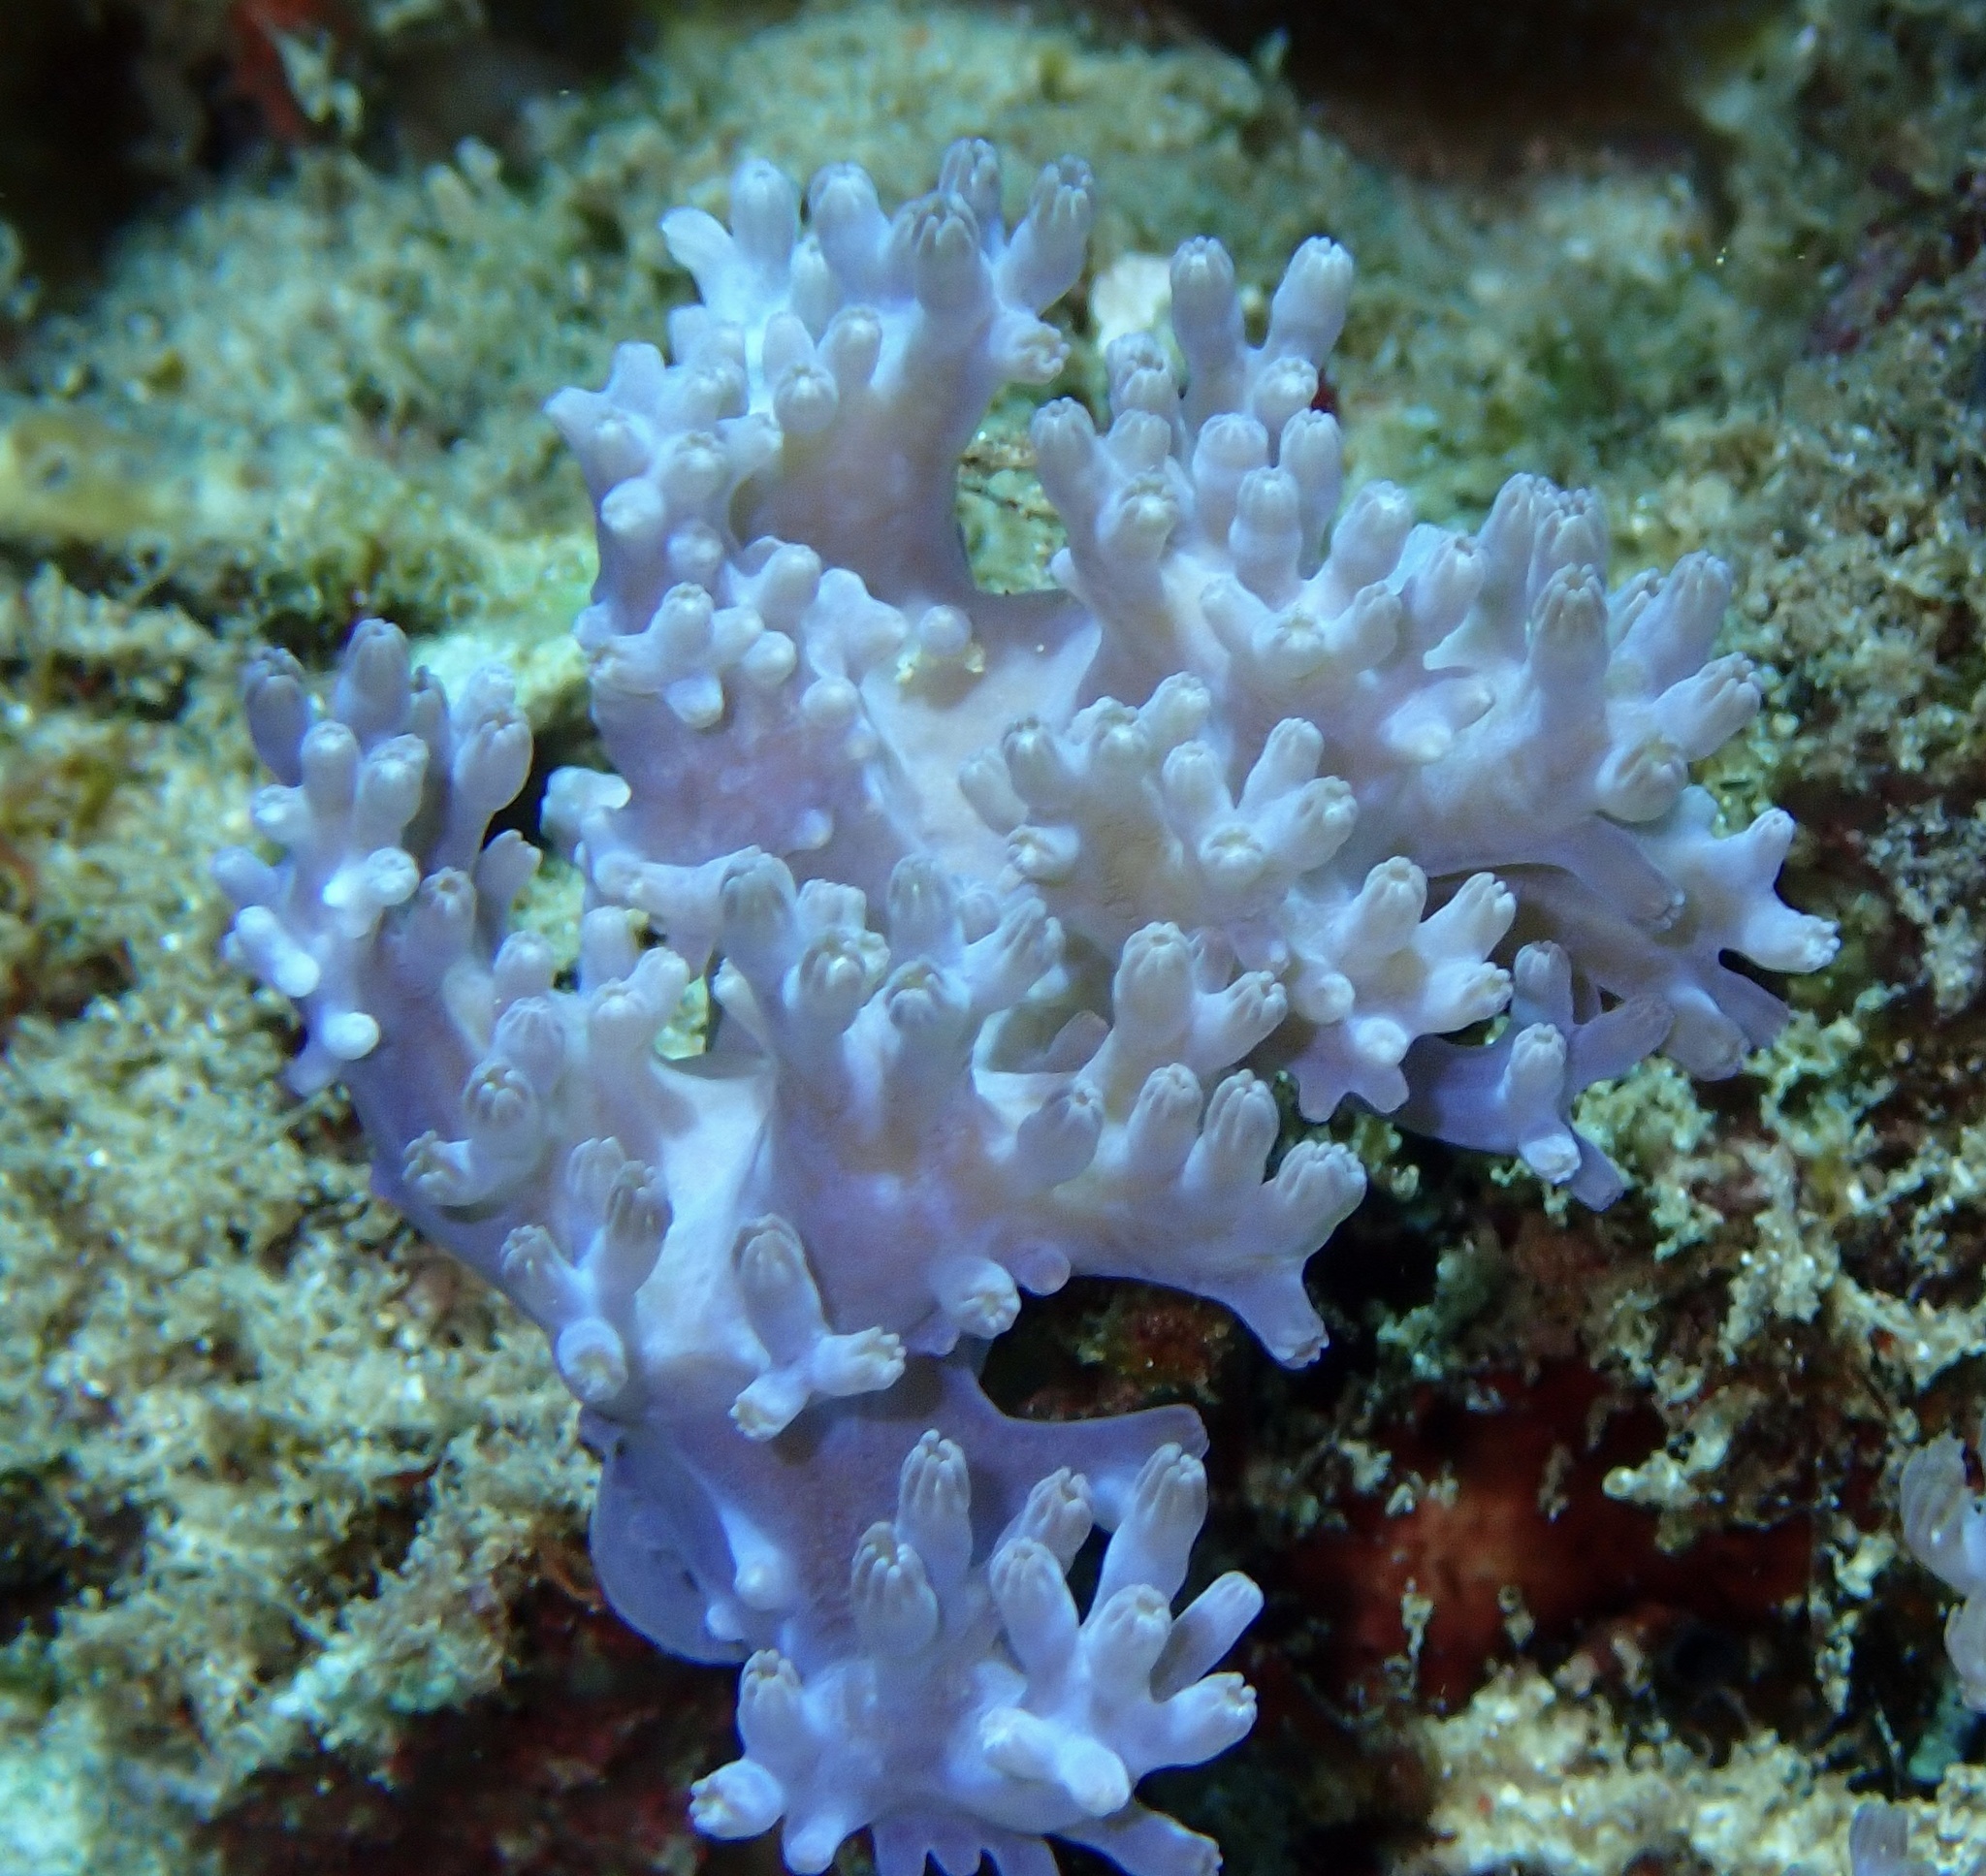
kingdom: Animalia
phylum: Cnidaria
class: Anthozoa
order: Malacalcyonacea
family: Xeniidae
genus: Conglomeratusclera
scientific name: Conglomeratusclera coerulea
